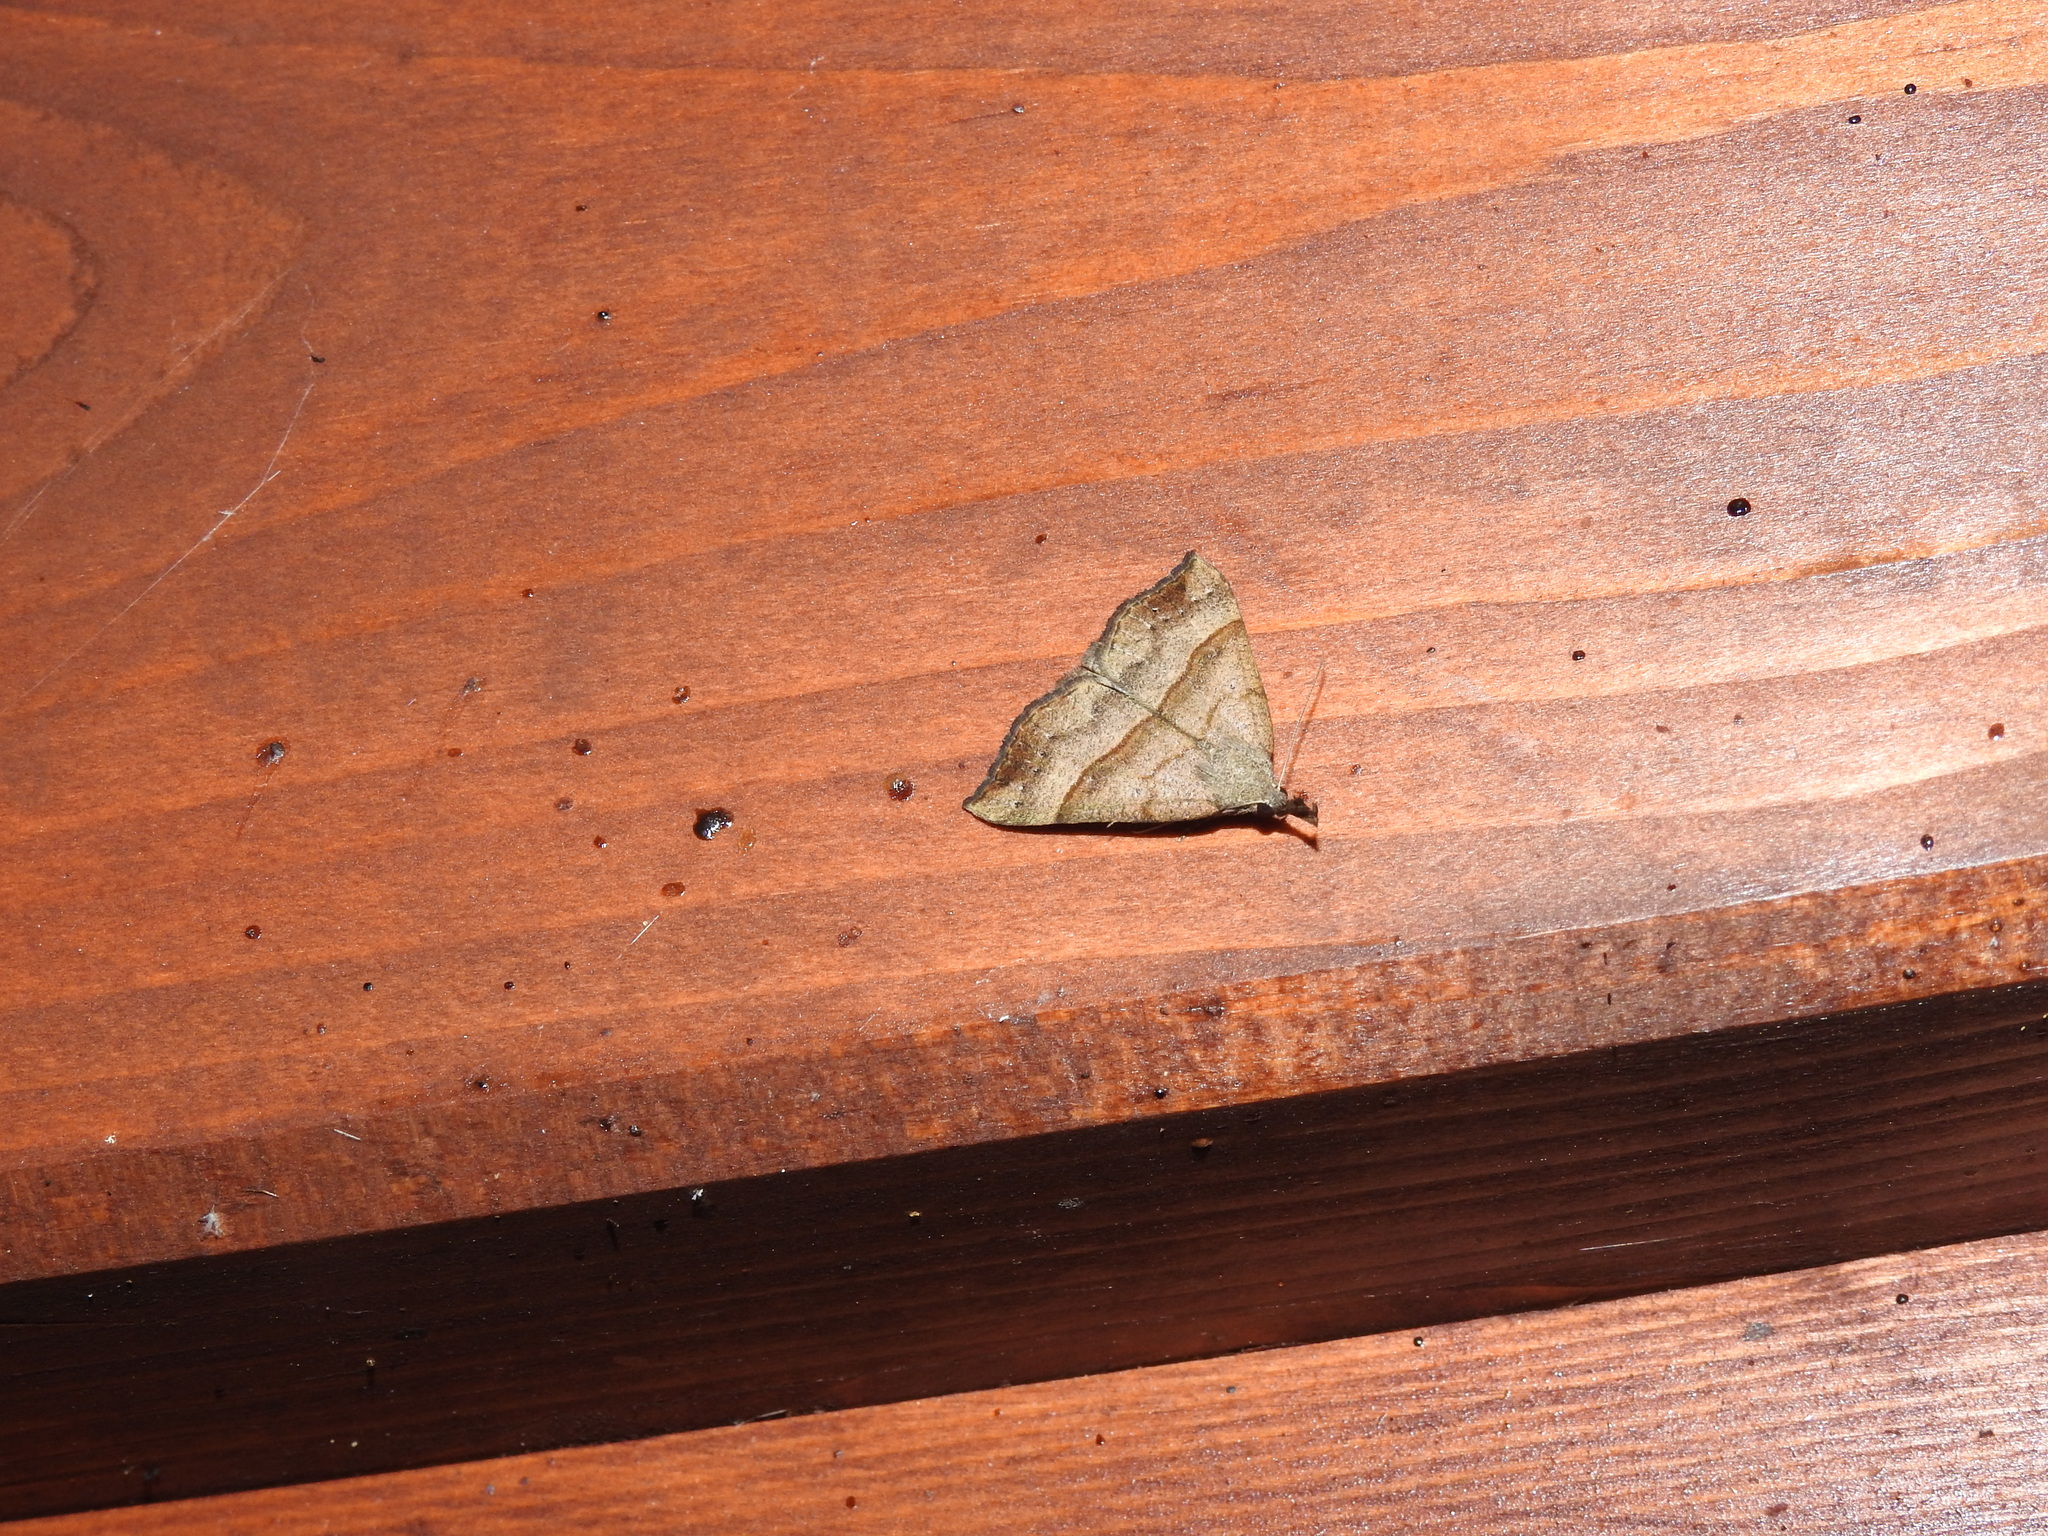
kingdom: Animalia
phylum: Arthropoda
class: Insecta
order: Lepidoptera
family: Erebidae
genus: Hypena
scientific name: Hypena proboscidalis
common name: Snout
